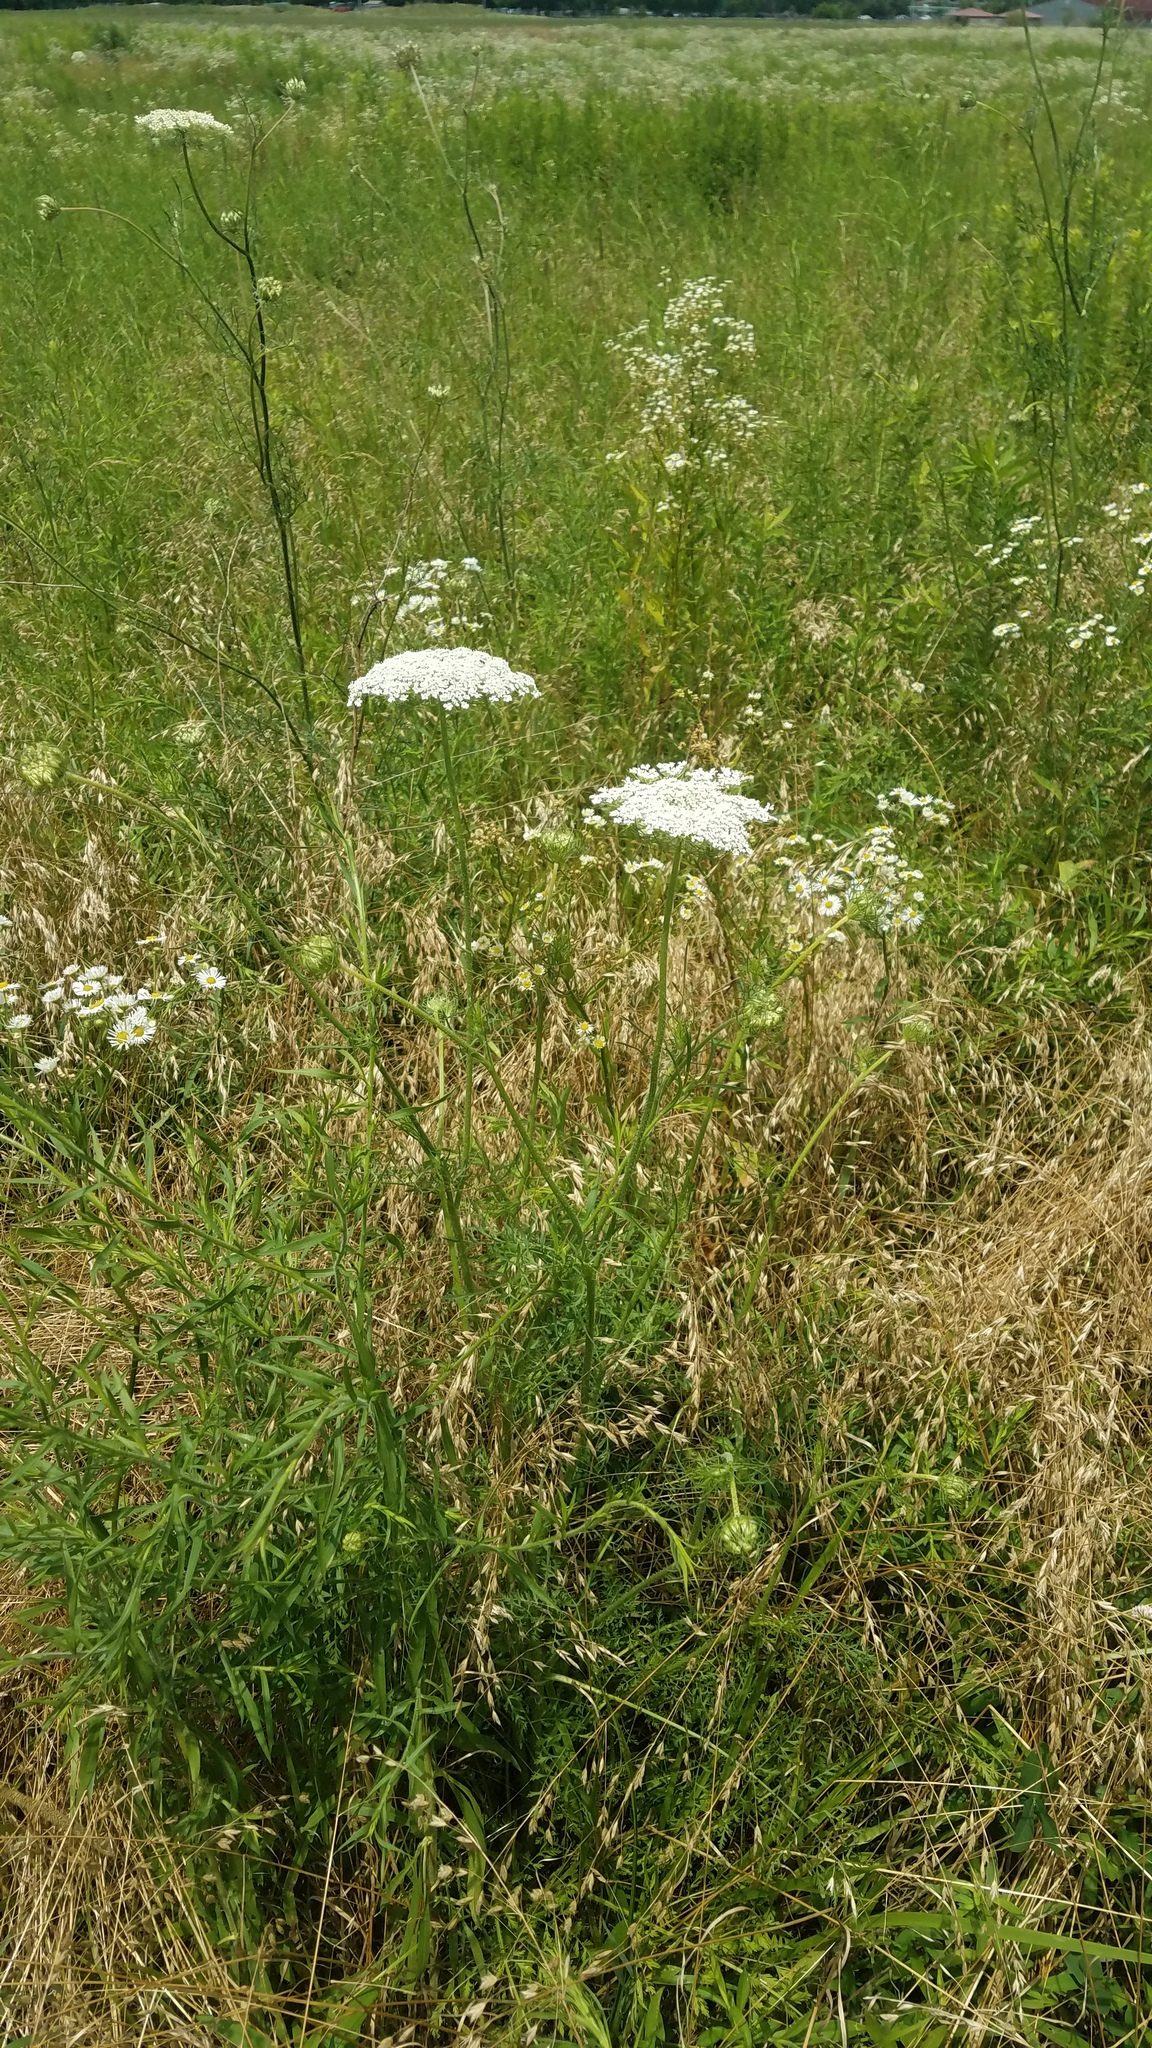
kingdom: Plantae
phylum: Tracheophyta
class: Magnoliopsida
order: Apiales
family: Apiaceae
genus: Daucus
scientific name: Daucus carota
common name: Wild carrot
